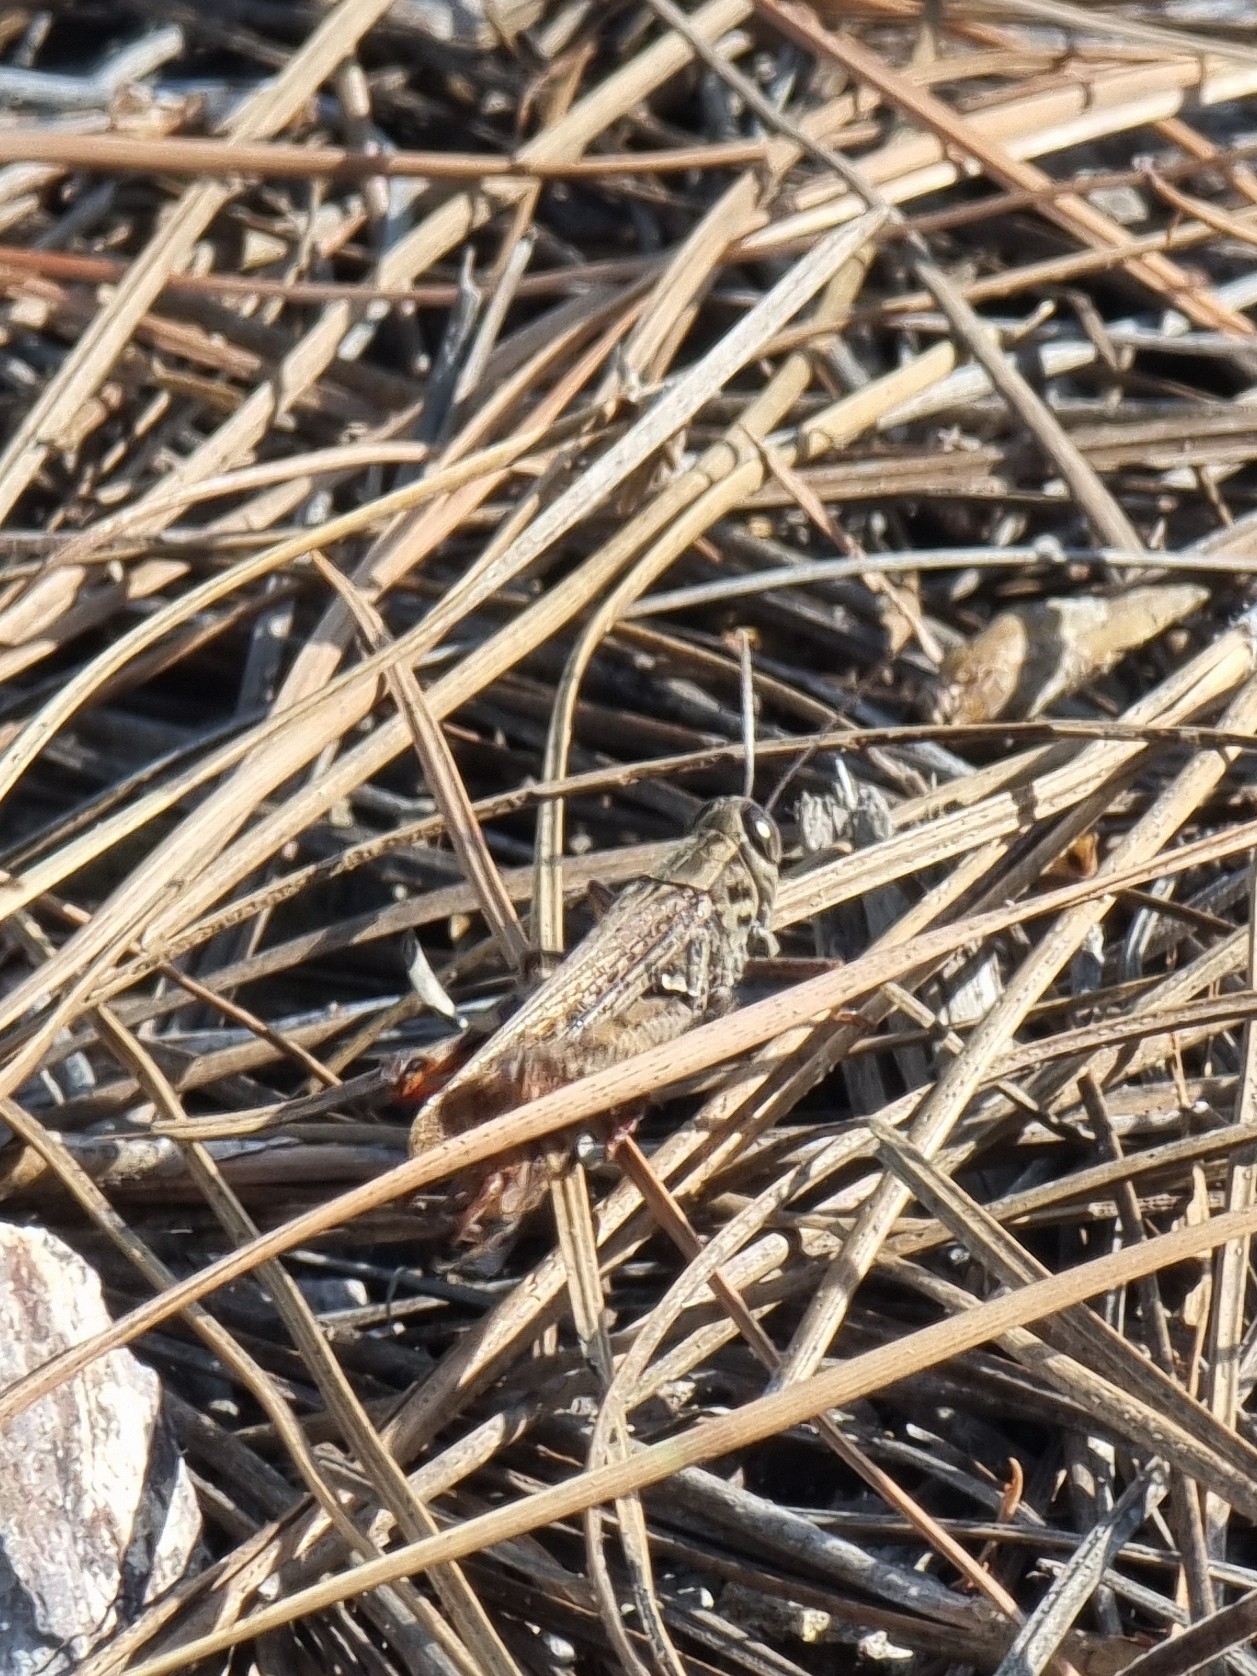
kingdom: Animalia
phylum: Arthropoda
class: Insecta
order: Orthoptera
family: Acrididae
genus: Calliptamus
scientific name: Calliptamus plebeius
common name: Canarian pincer grasshopper
